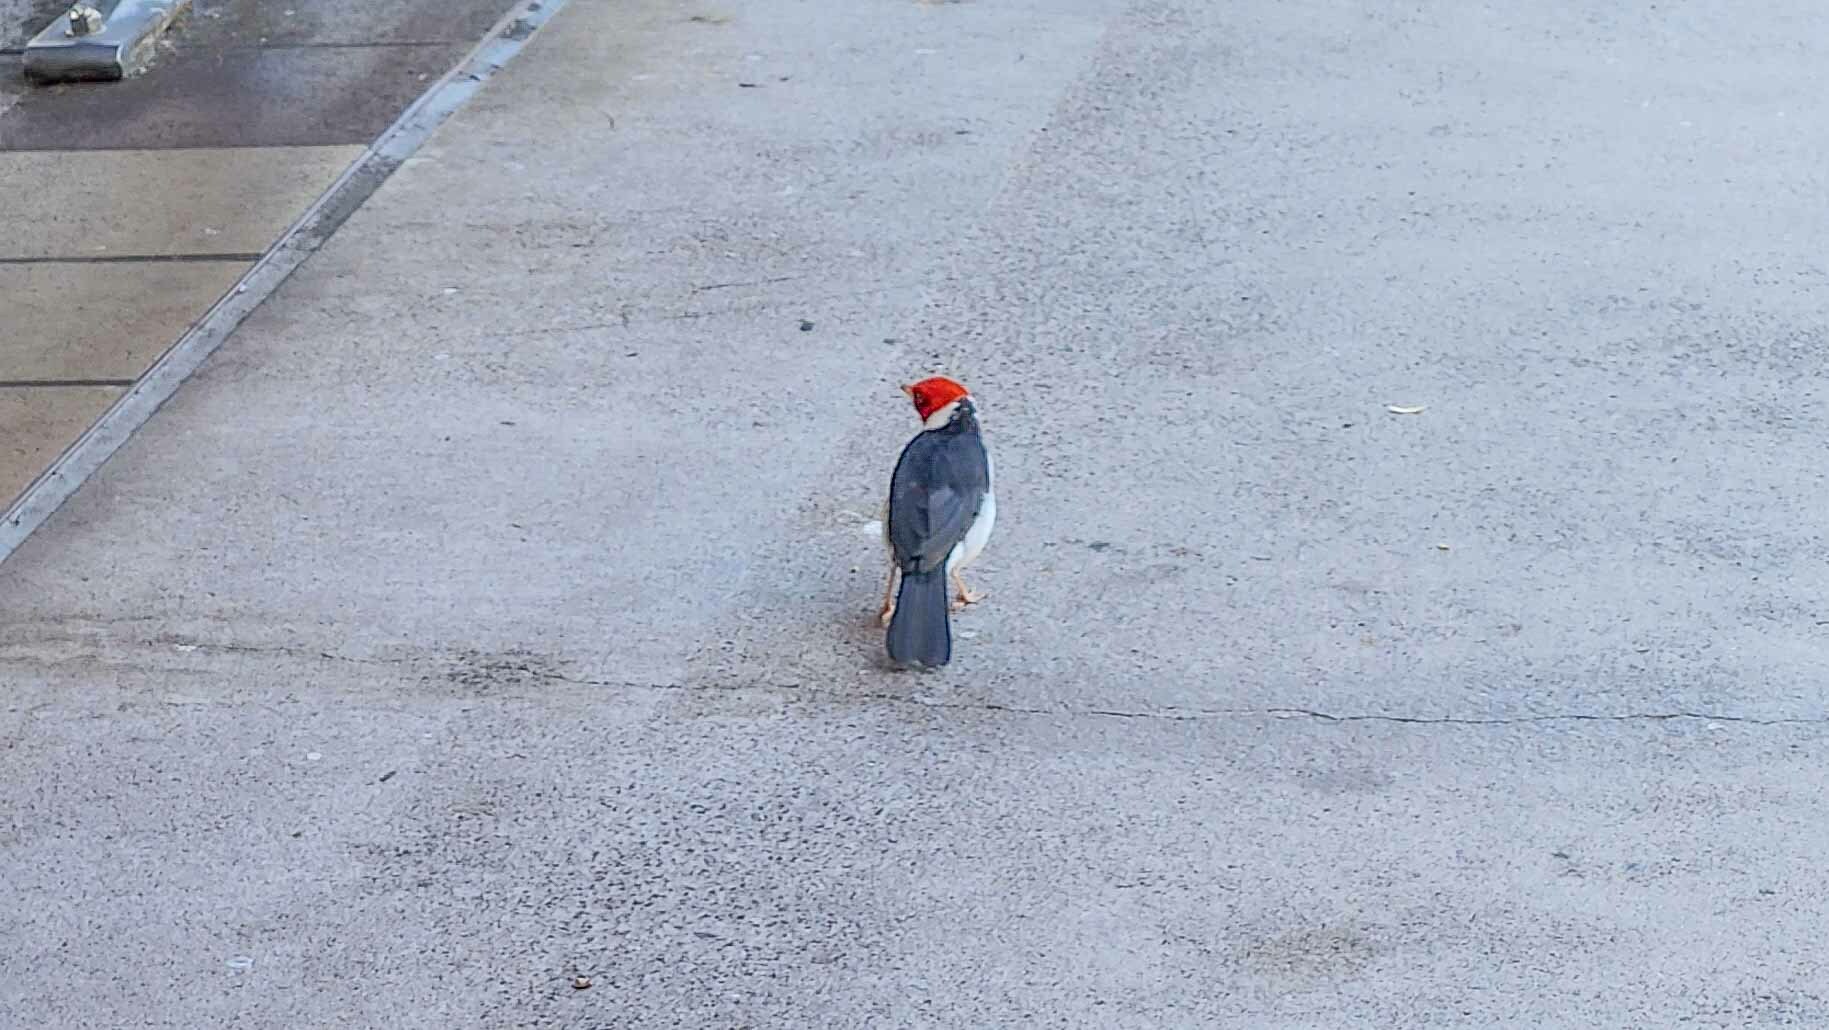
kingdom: Animalia
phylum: Chordata
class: Aves
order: Passeriformes
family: Thraupidae
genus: Paroaria
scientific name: Paroaria capitata
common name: Yellow-billed cardinal
